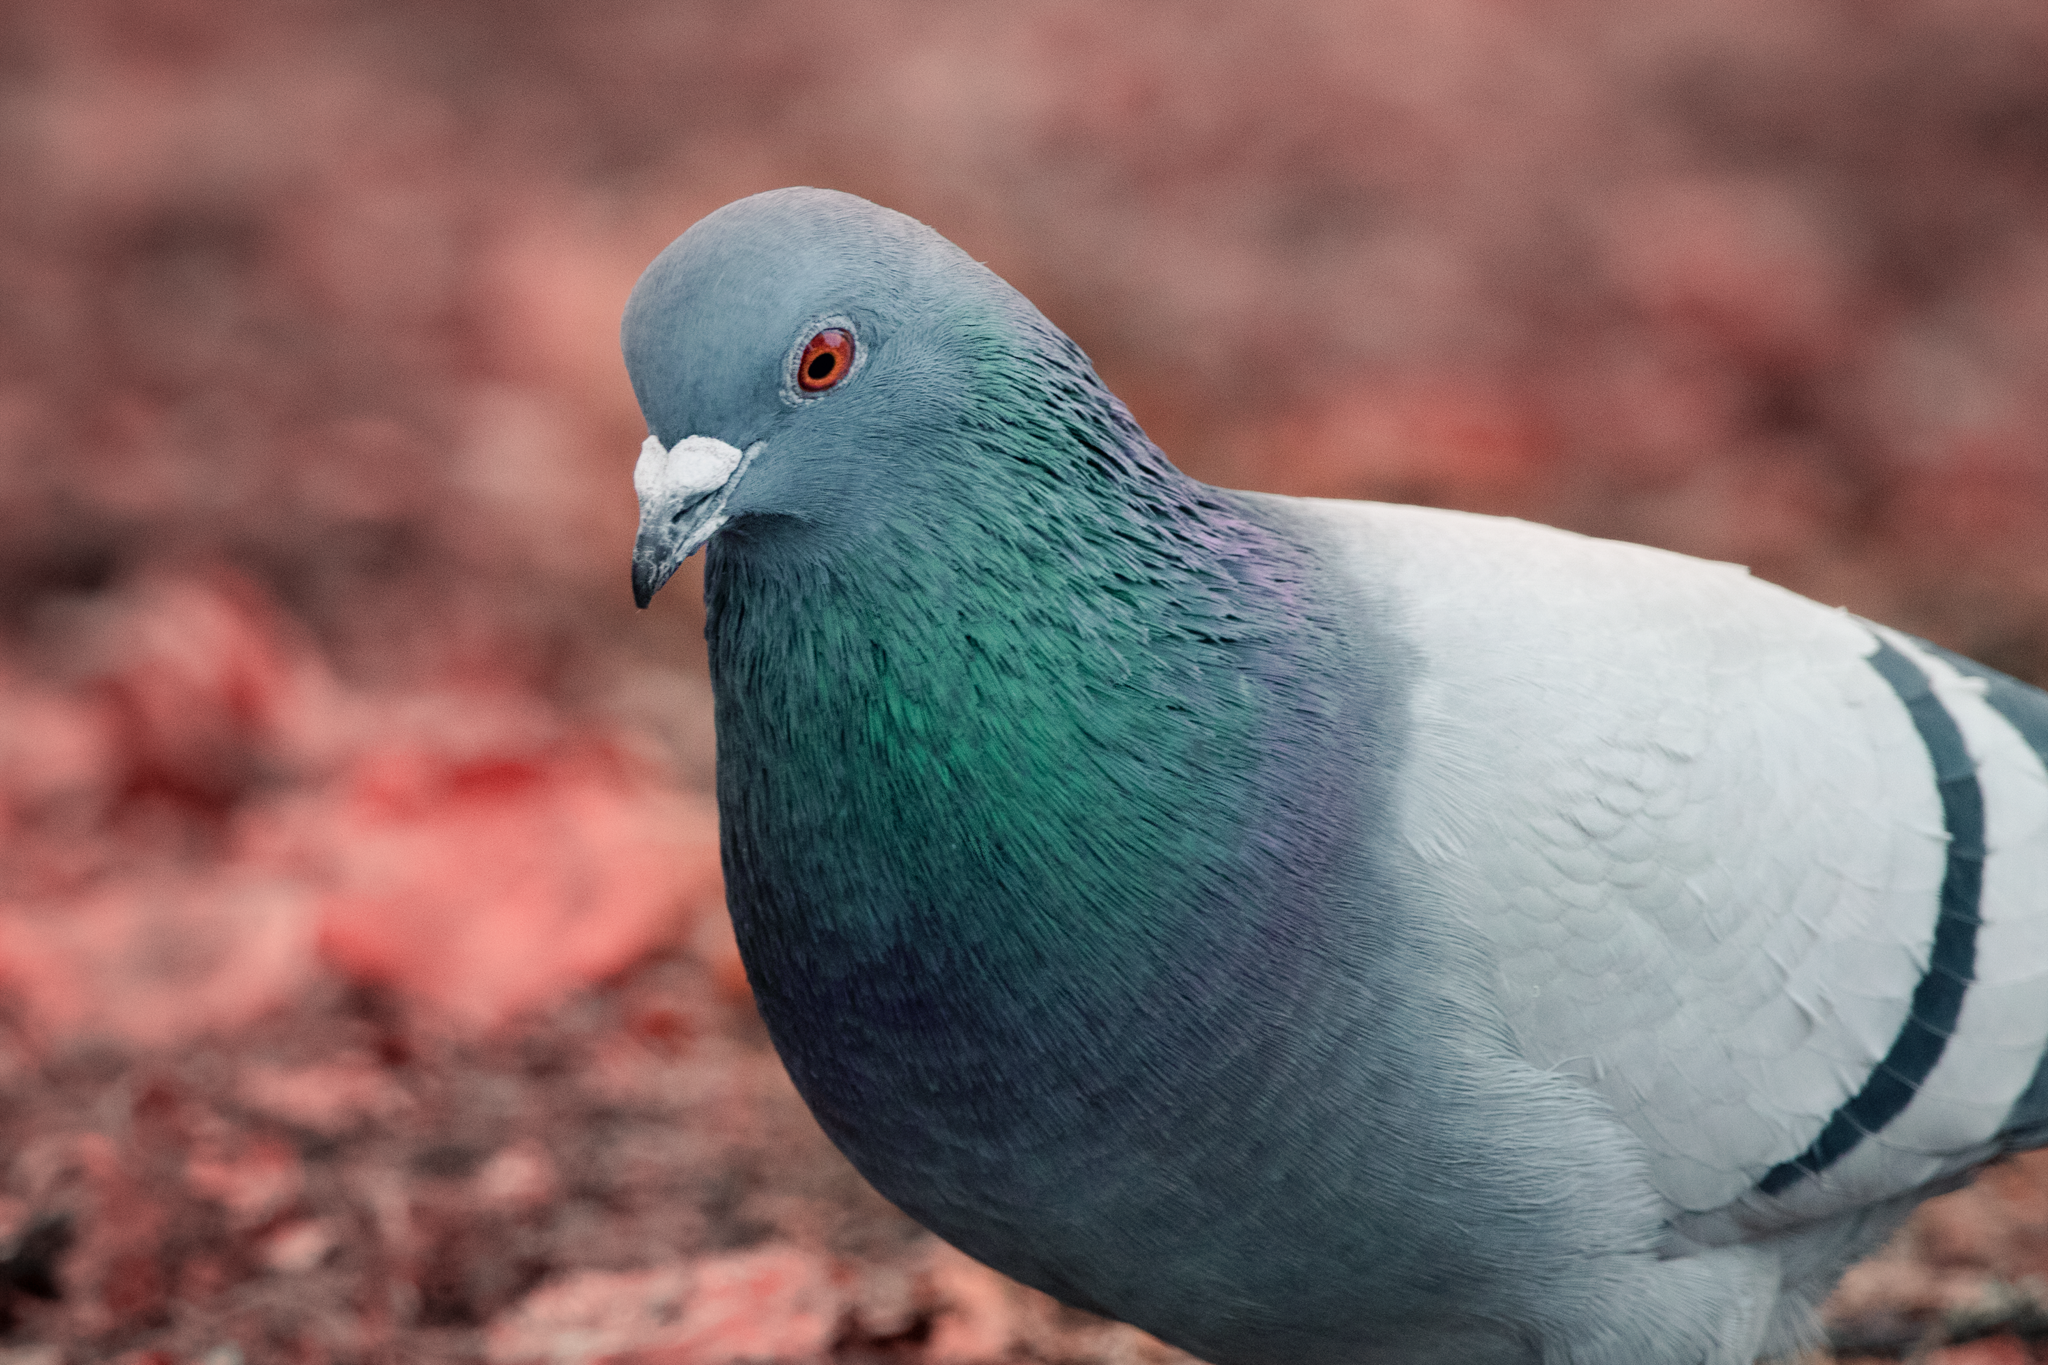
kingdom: Animalia
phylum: Chordata
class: Aves
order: Columbiformes
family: Columbidae
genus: Columba
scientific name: Columba livia
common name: Rock pigeon
